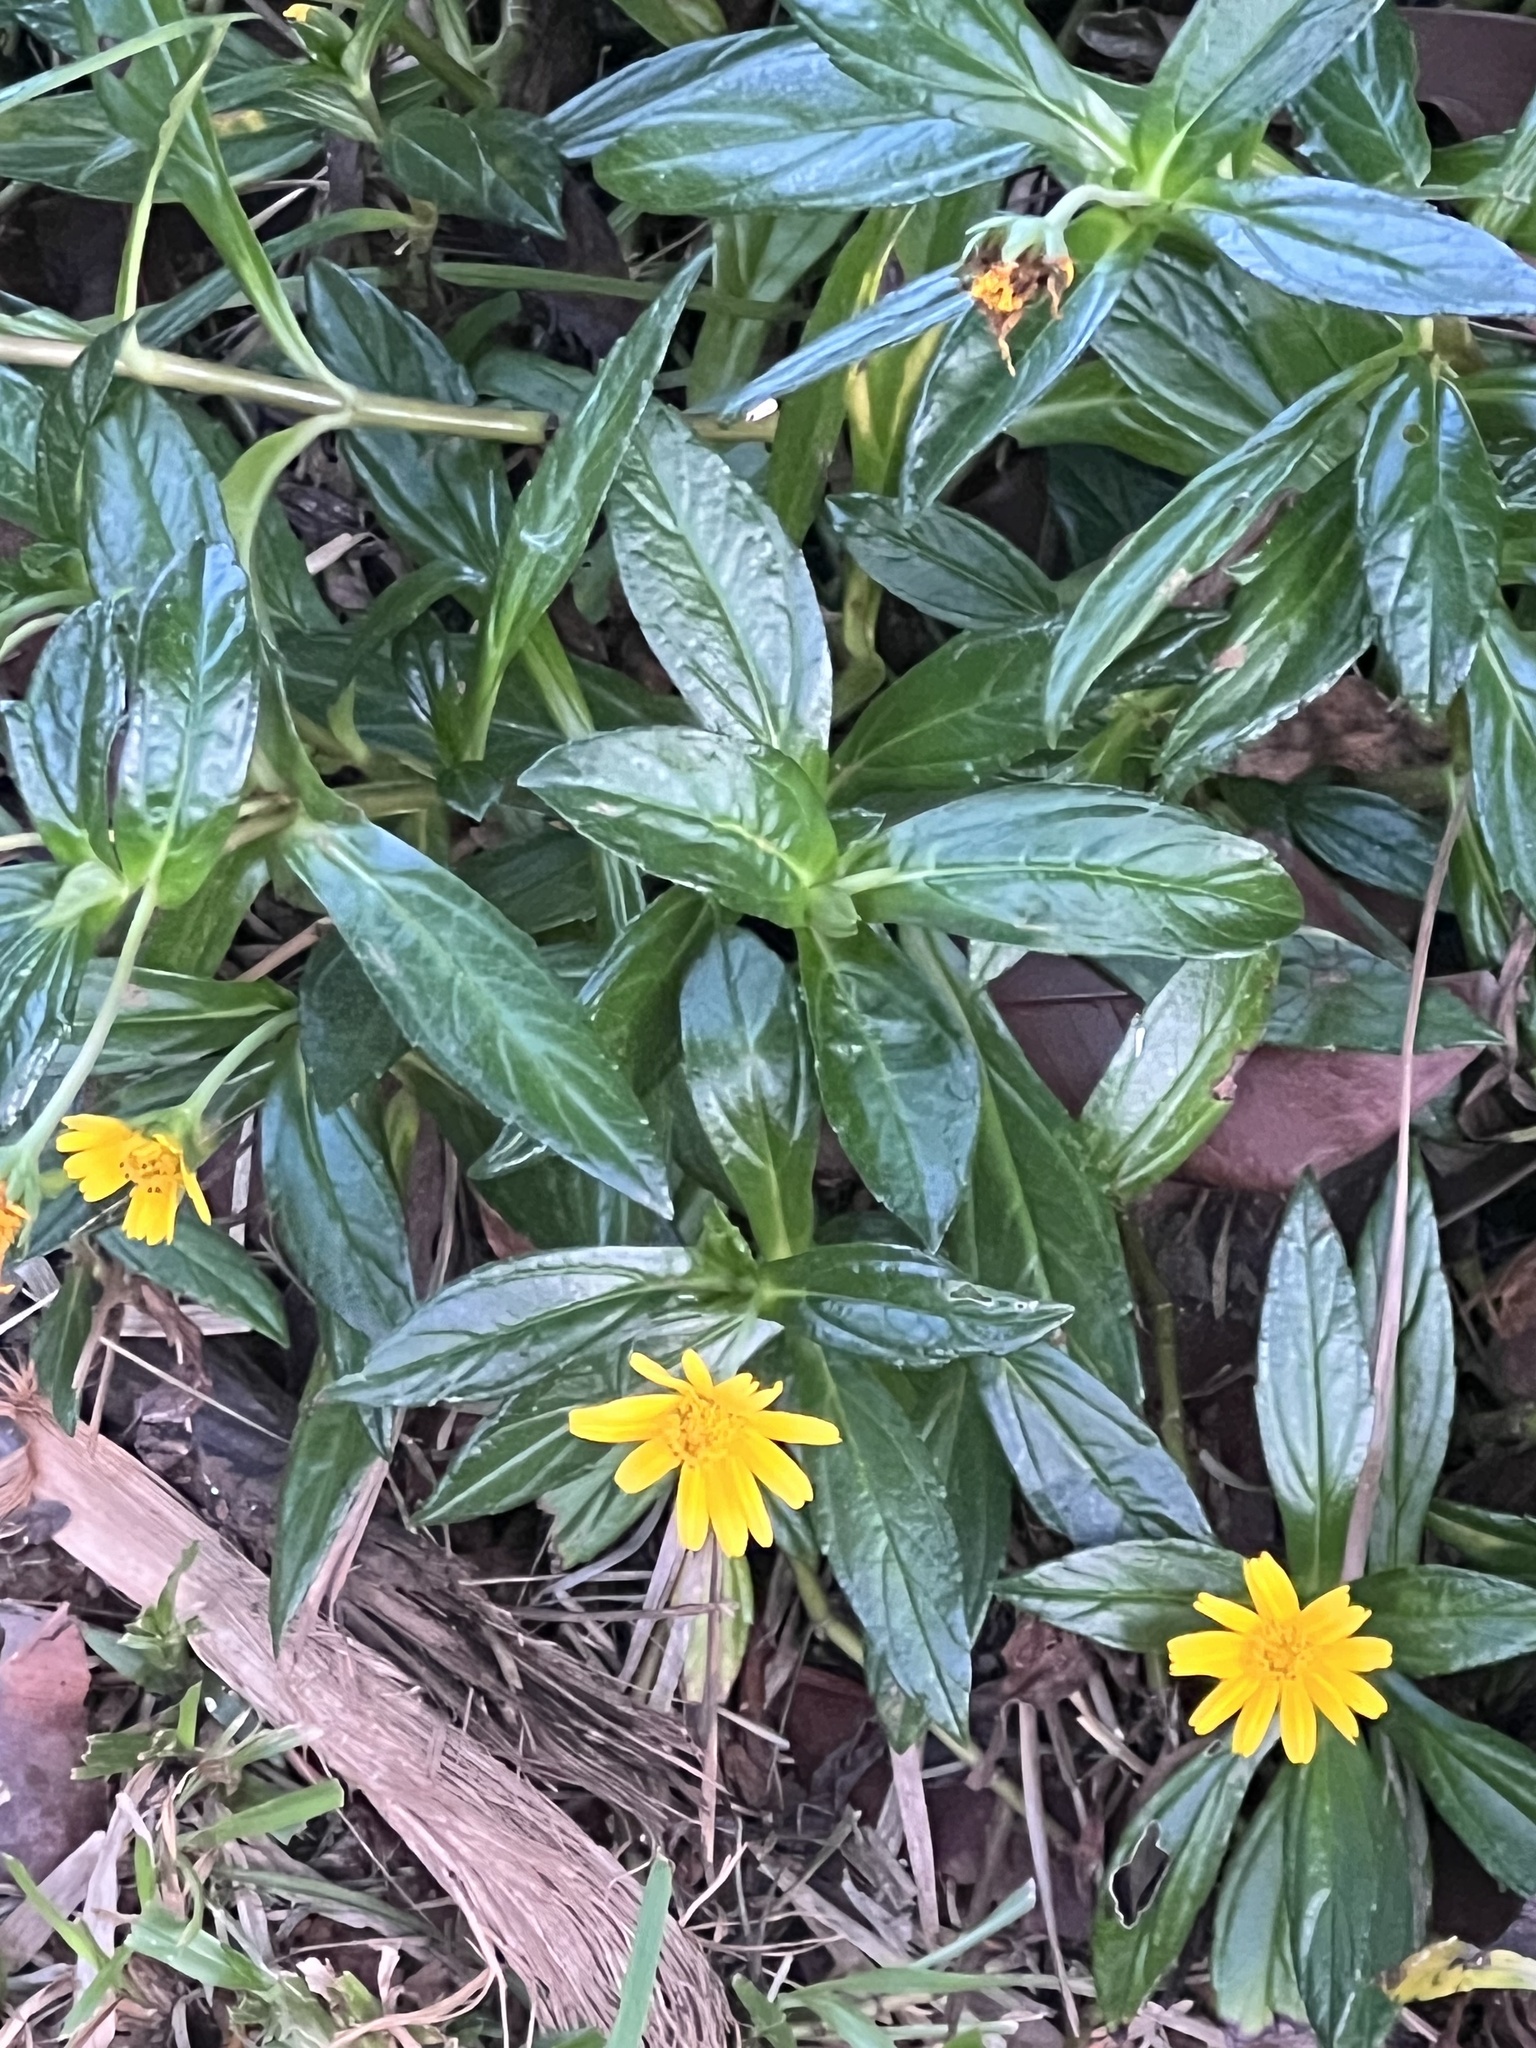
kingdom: Plantae
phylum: Tracheophyta
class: Magnoliopsida
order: Asterales
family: Asteraceae
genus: Sphagneticola
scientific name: Sphagneticola trilobata
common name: Bay biscayne creeping-oxeye
